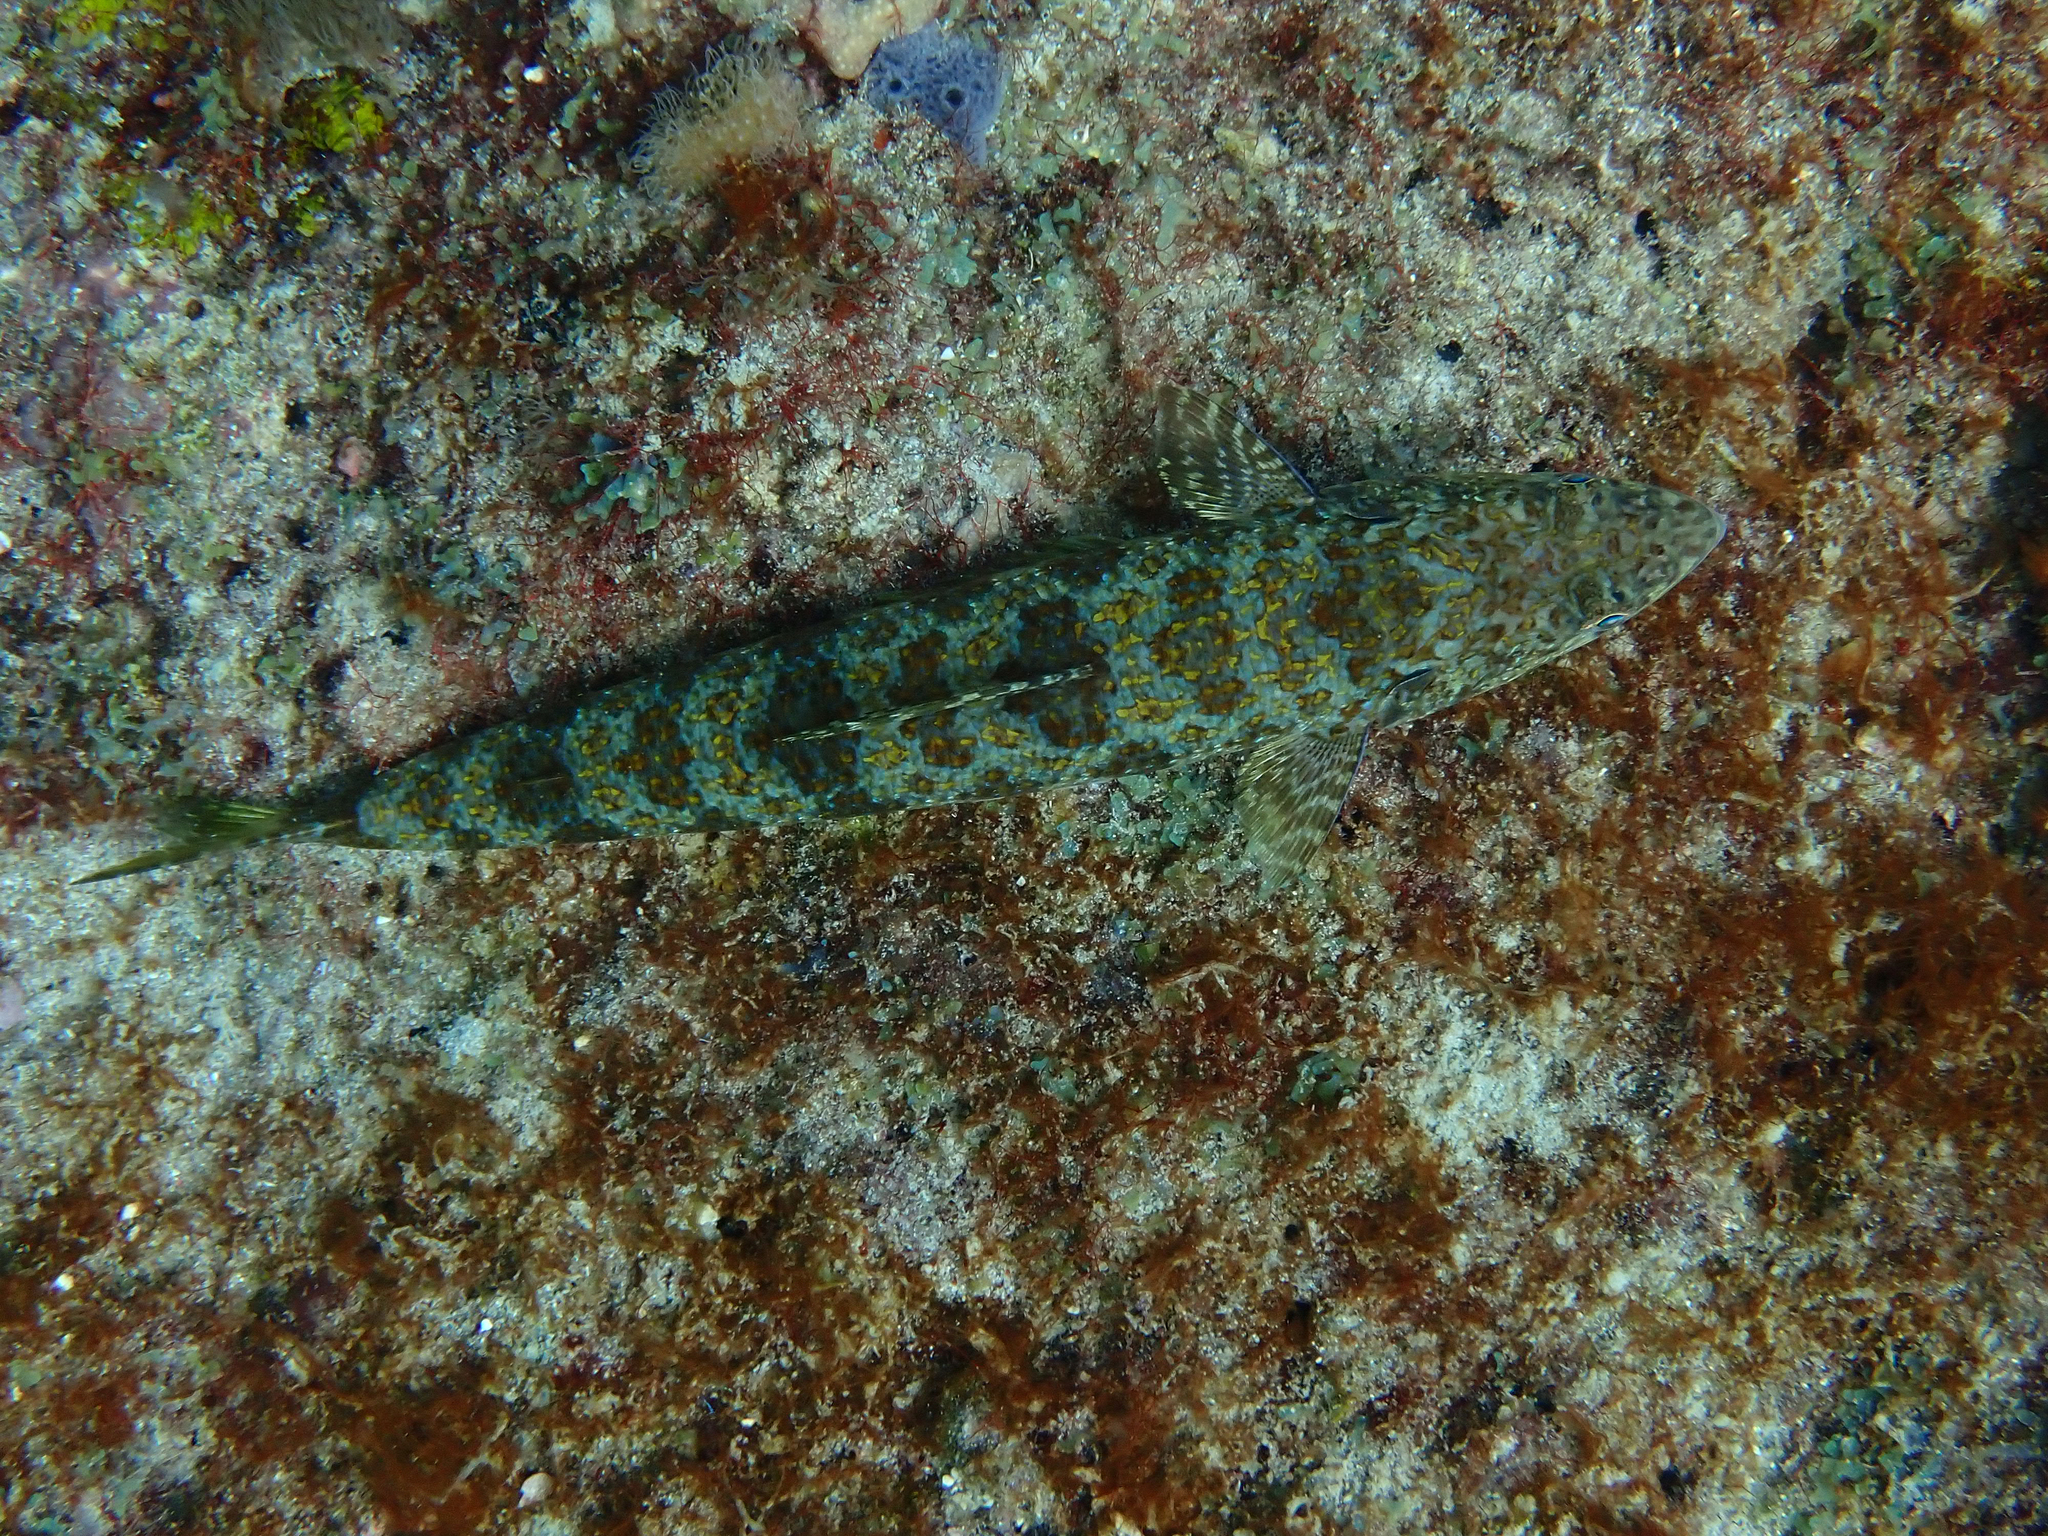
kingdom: Animalia
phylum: Chordata
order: Aulopiformes
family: Synodontidae
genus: Synodus
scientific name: Synodus intermedius
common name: Sand diver
